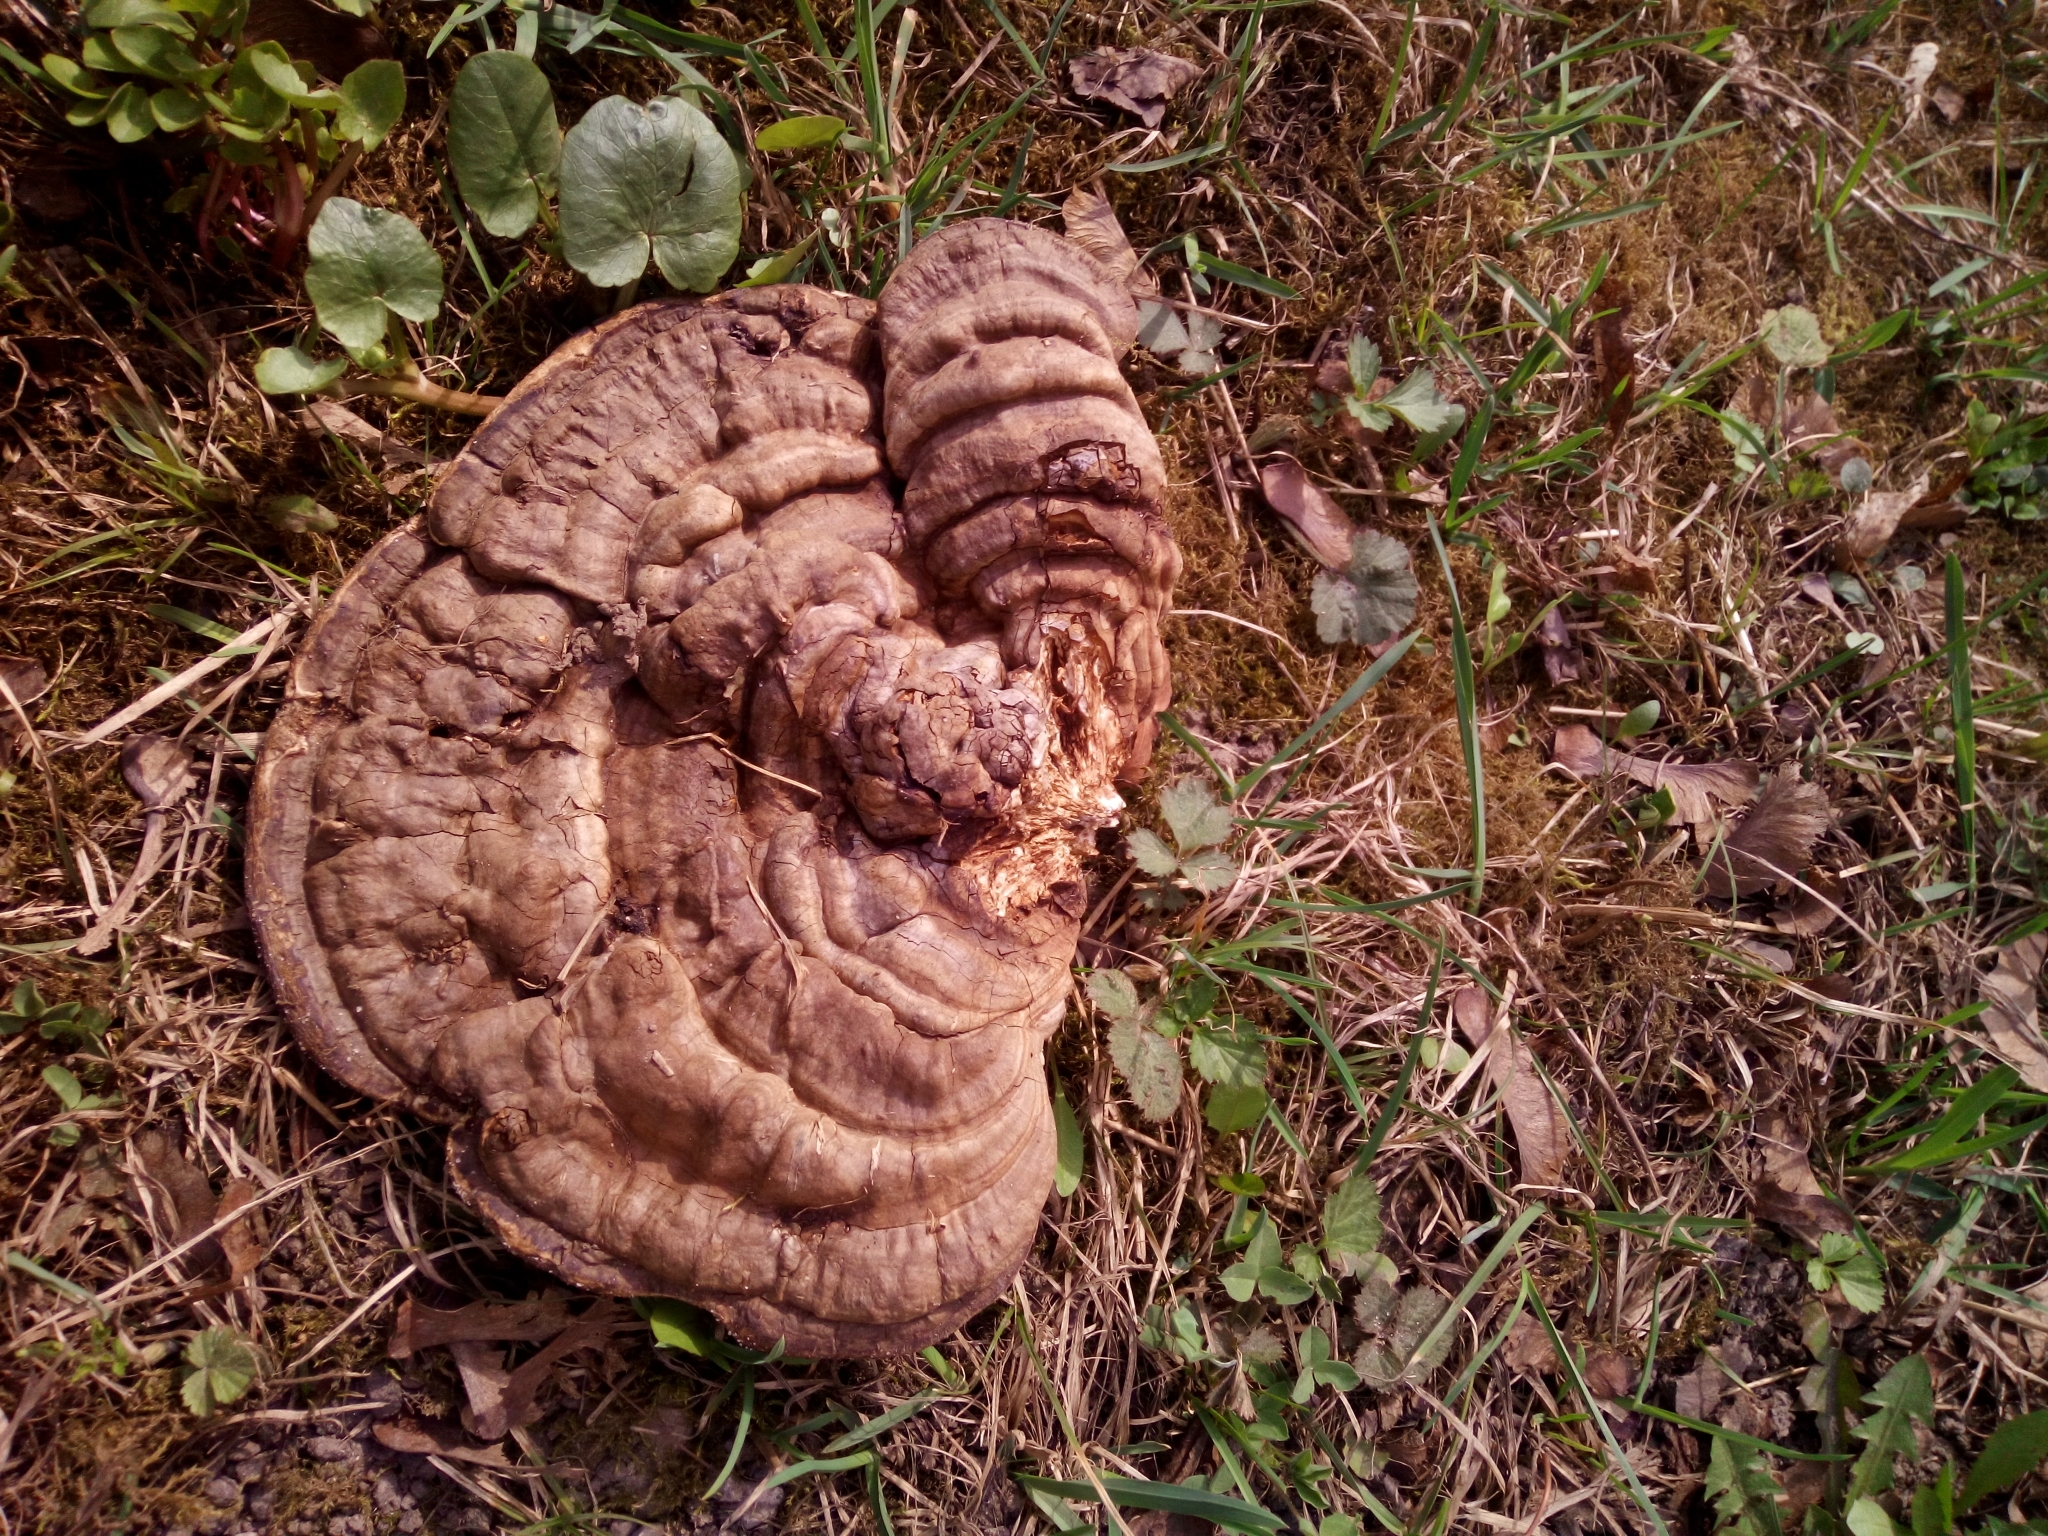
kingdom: Fungi
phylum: Basidiomycota
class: Agaricomycetes
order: Polyporales
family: Polyporaceae
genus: Ganoderma
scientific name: Ganoderma applanatum
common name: Artist's bracket
